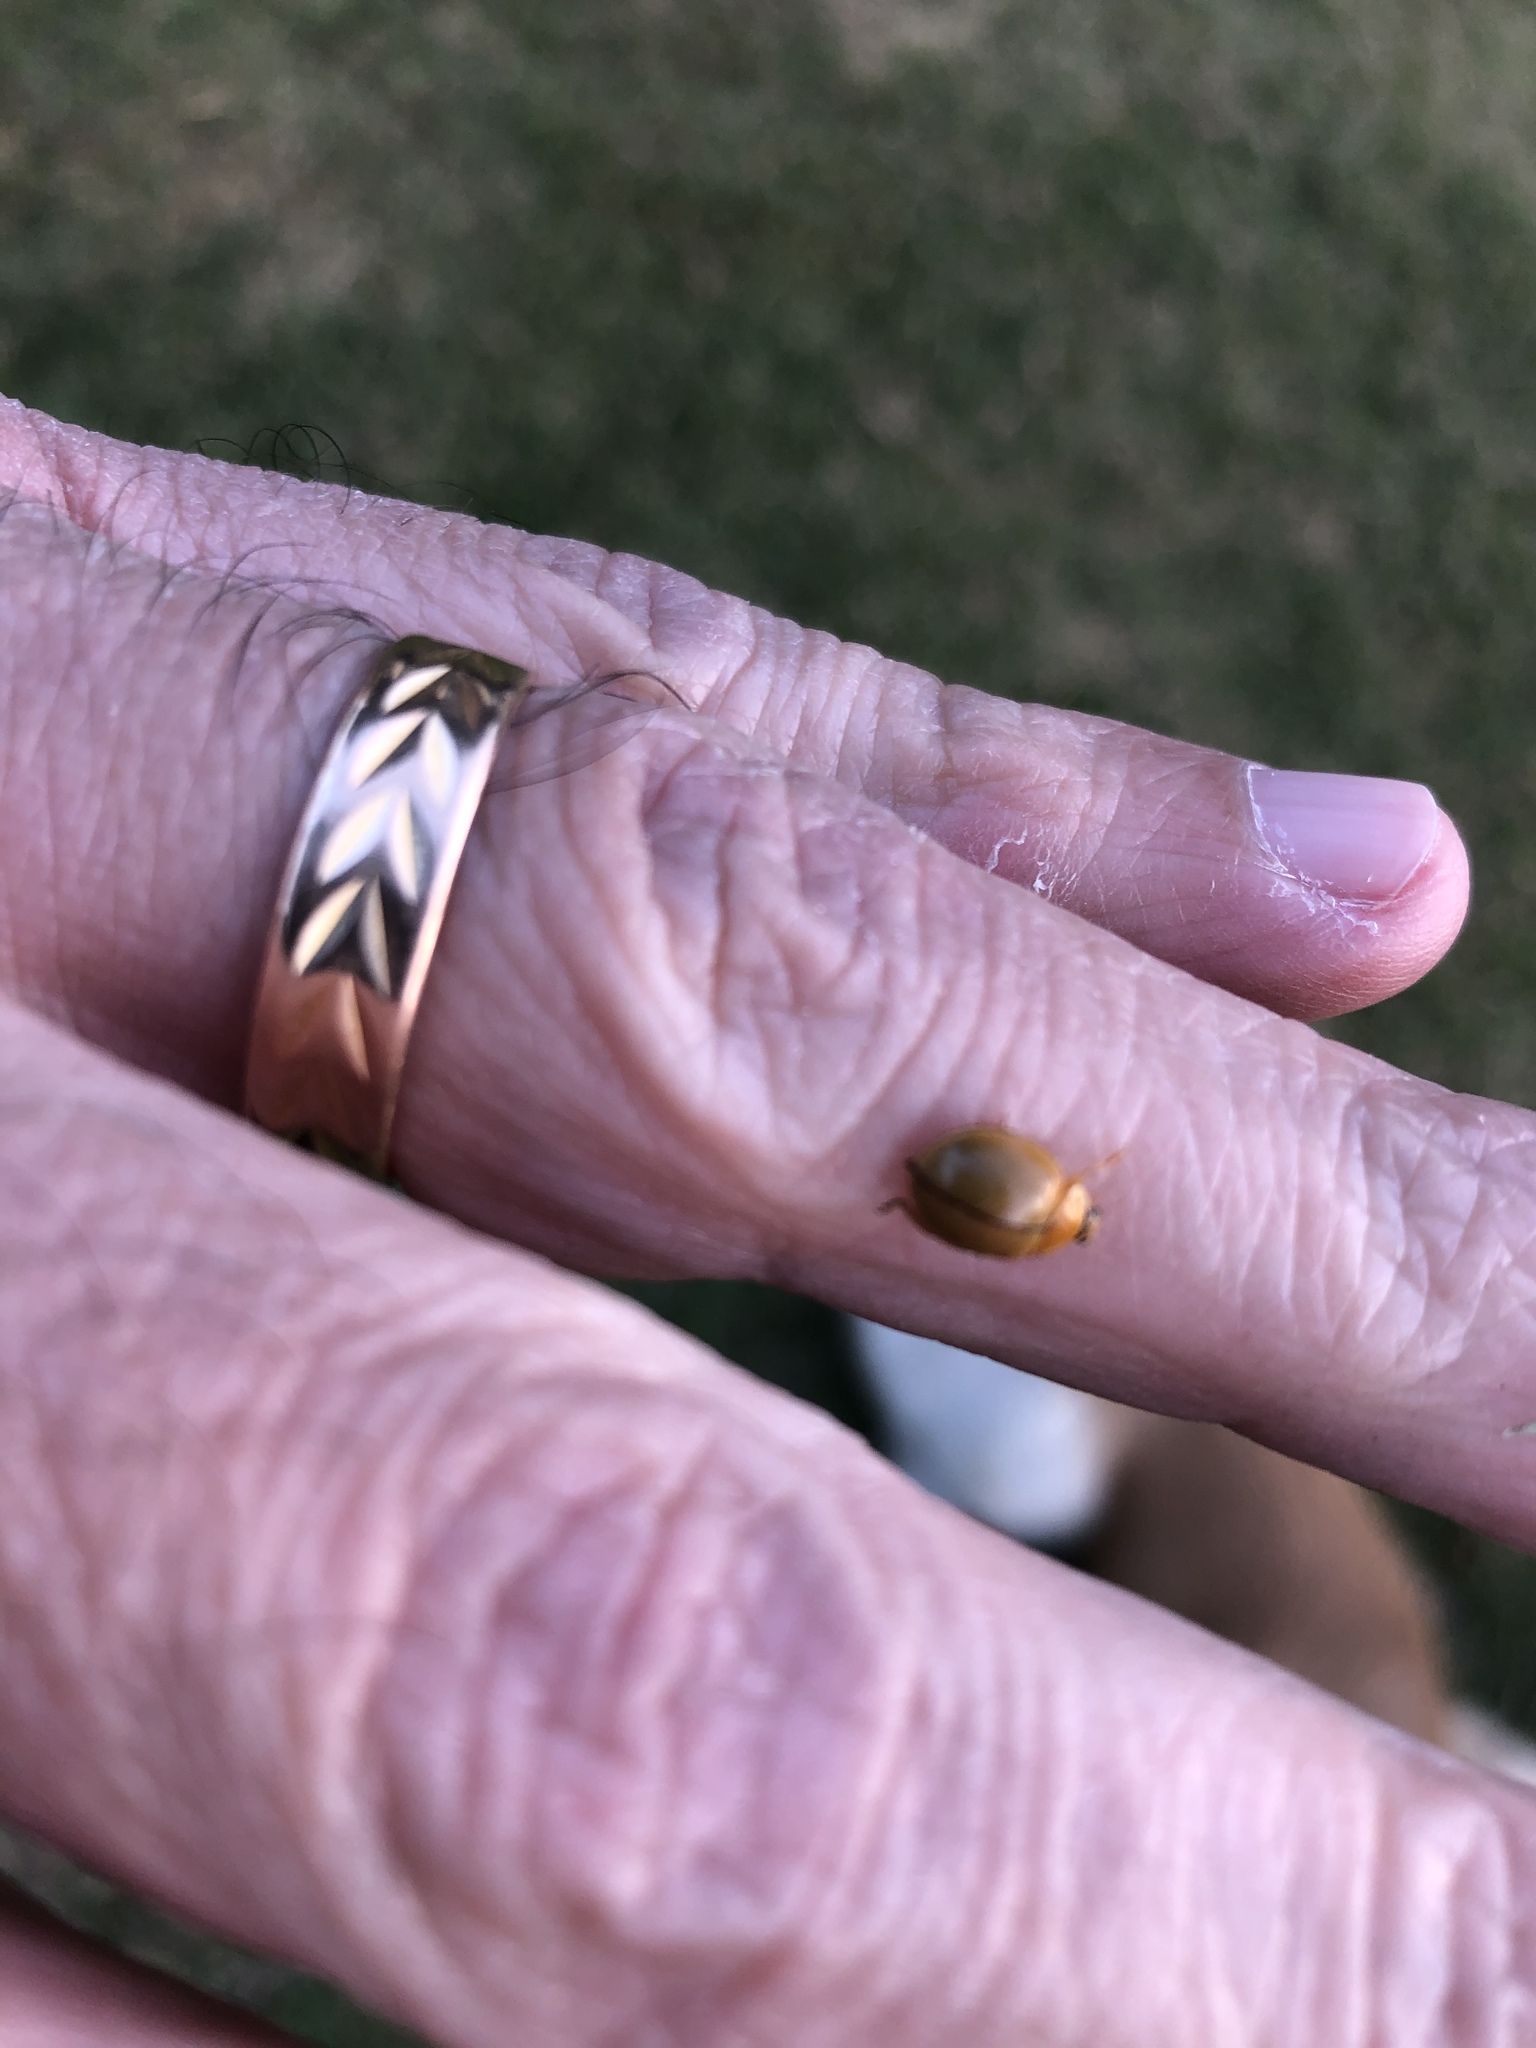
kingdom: Animalia
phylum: Arthropoda
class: Insecta
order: Coleoptera
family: Coccinellidae
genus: Paraneda
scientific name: Paraneda pallidula
